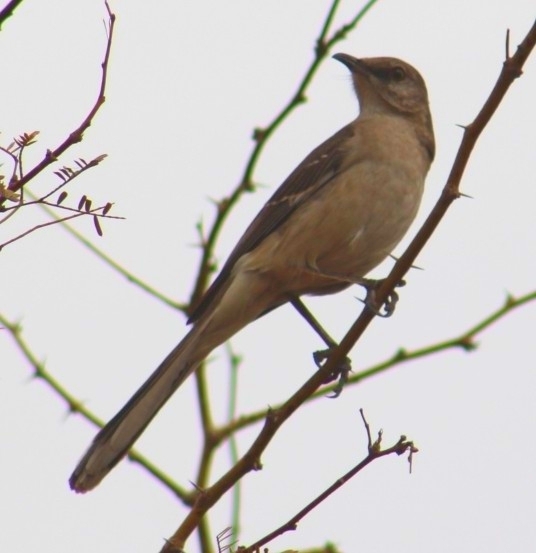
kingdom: Animalia
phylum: Chordata
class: Aves
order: Passeriformes
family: Mimidae
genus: Mimus
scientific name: Mimus polyglottos
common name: Northern mockingbird
